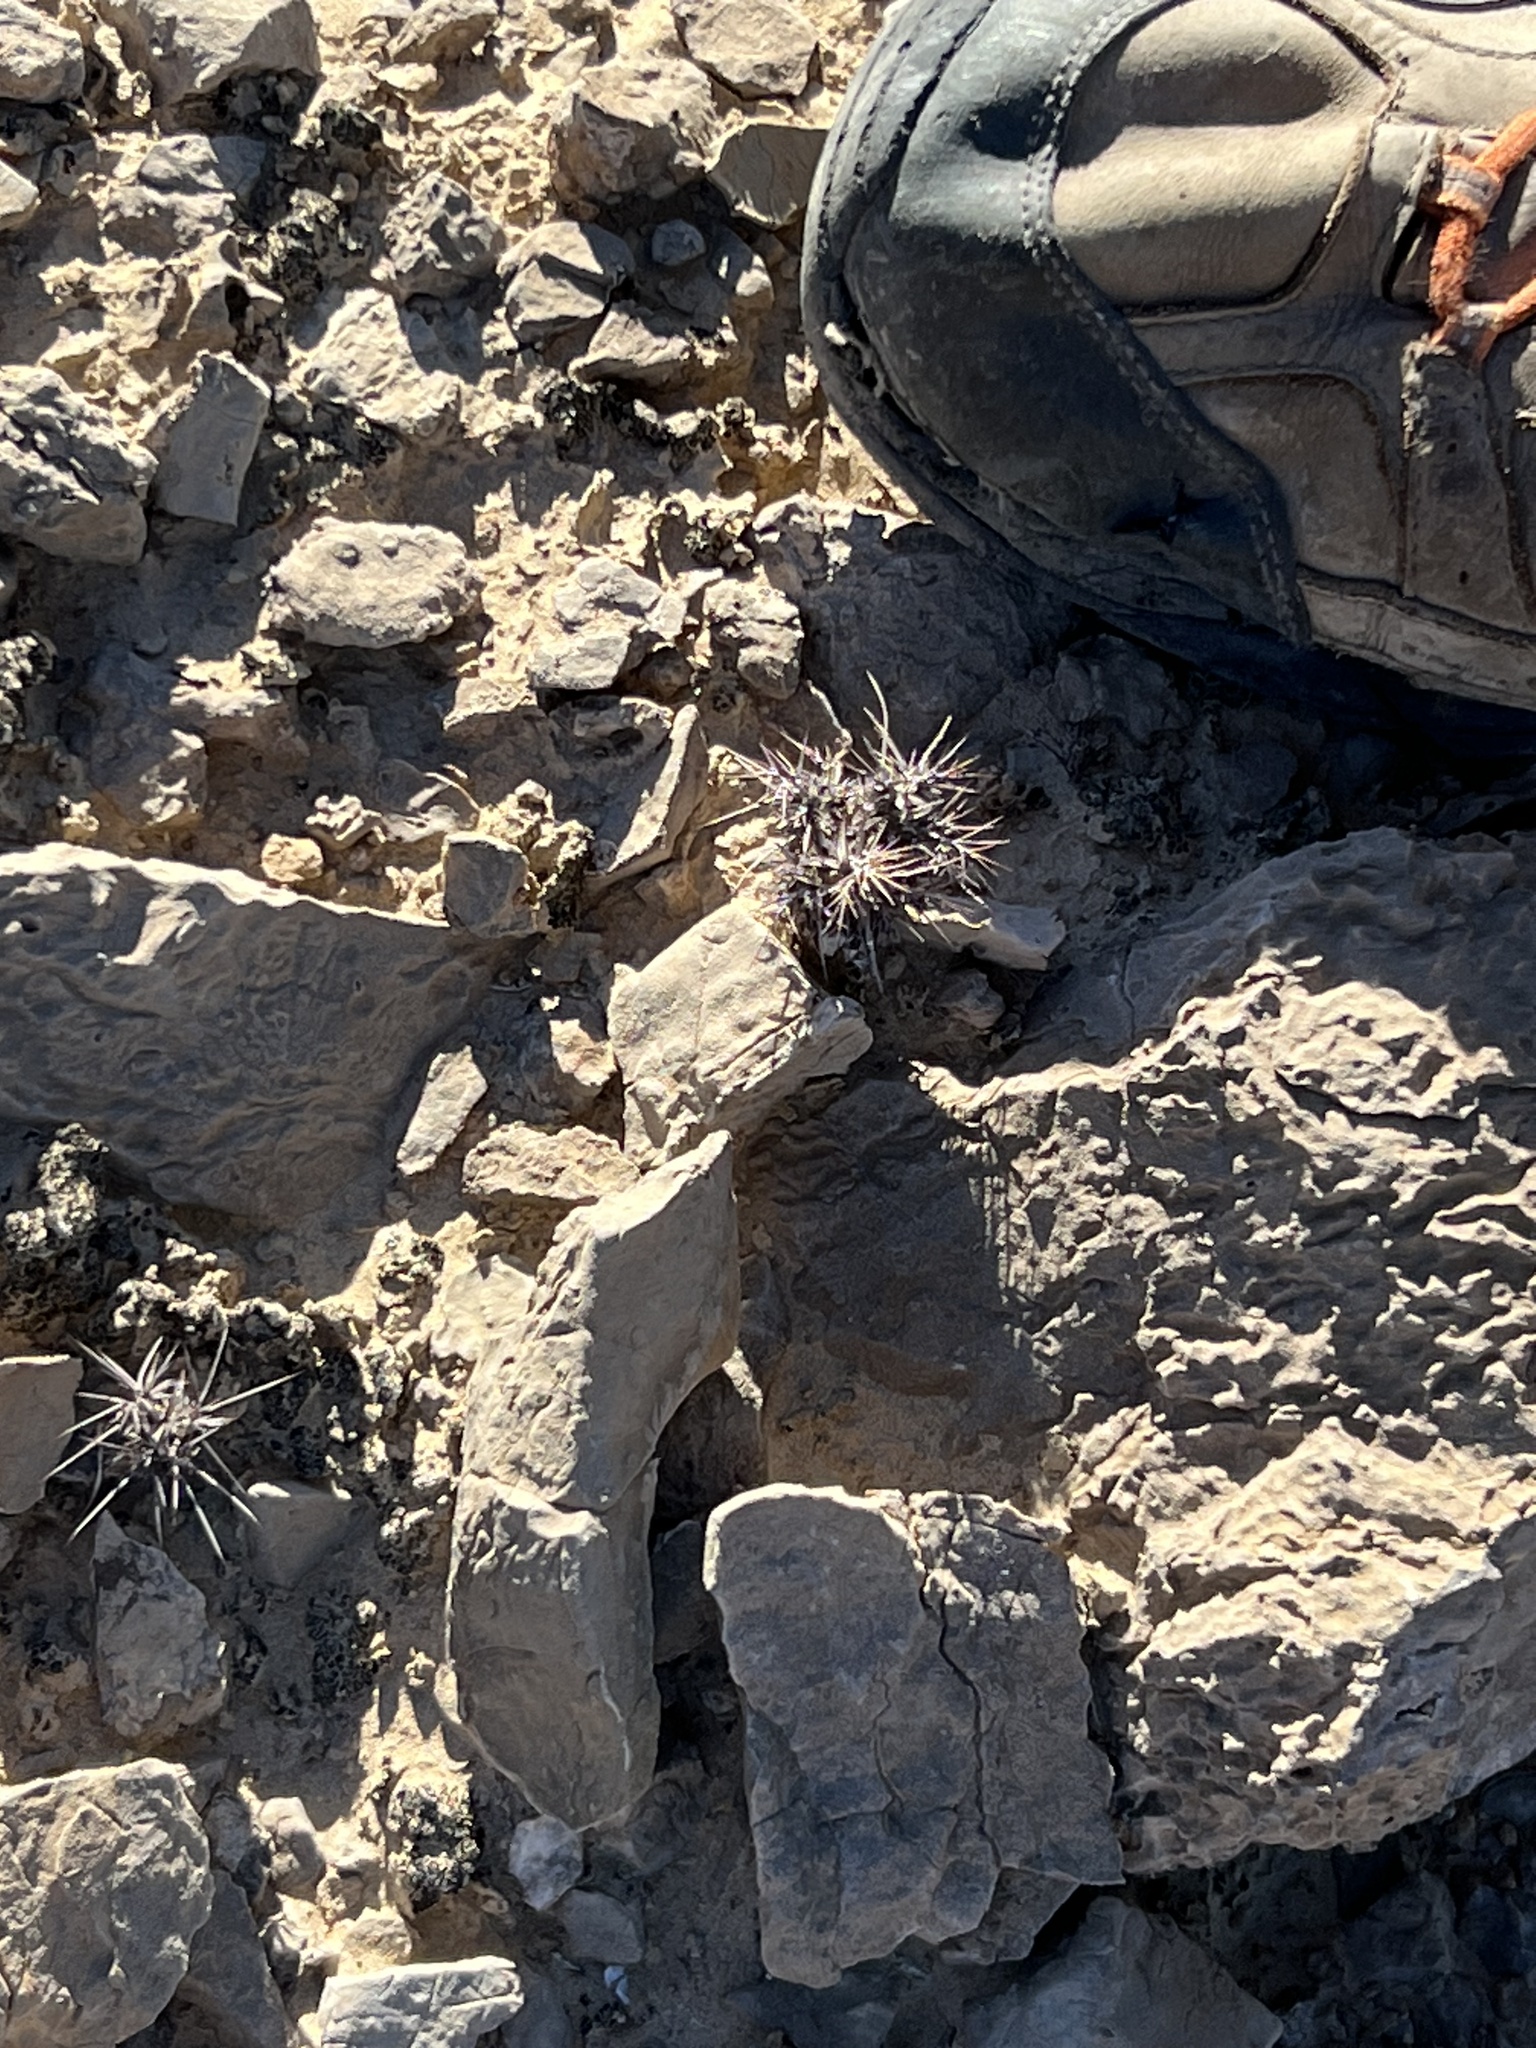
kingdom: Plantae
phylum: Tracheophyta
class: Magnoliopsida
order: Caryophyllales
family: Polygonaceae
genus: Chorizanthe
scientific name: Chorizanthe rigida
